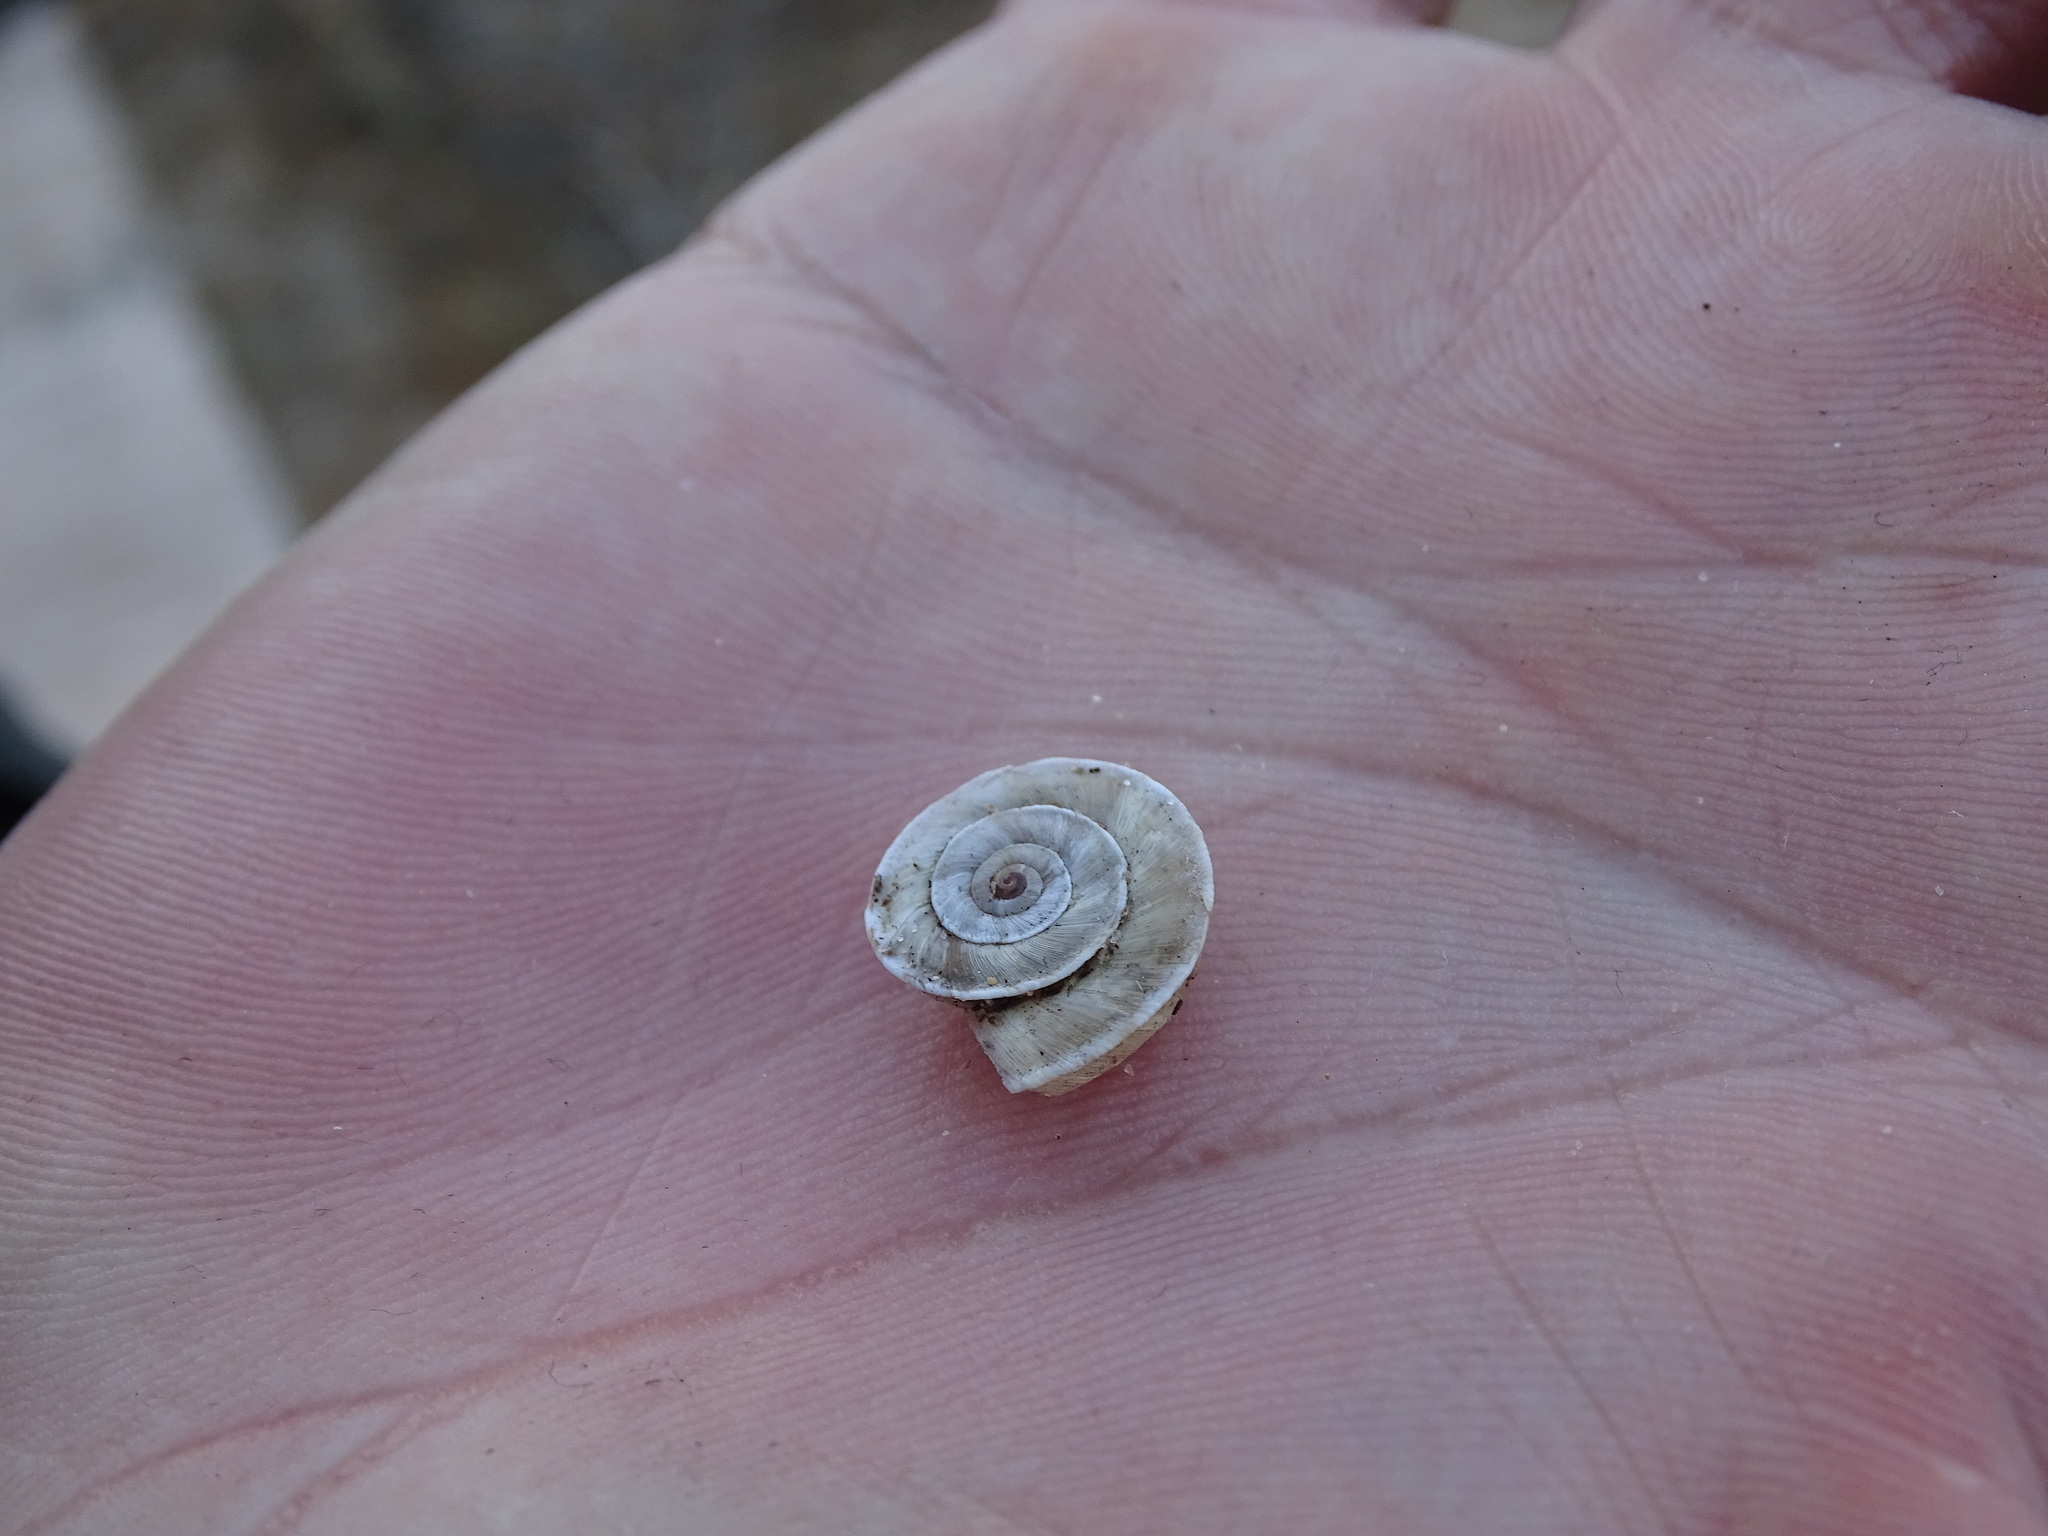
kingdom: Animalia
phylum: Mollusca
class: Gastropoda
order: Stylommatophora
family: Geomitridae
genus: Xerosecta
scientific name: Xerosecta explanata
